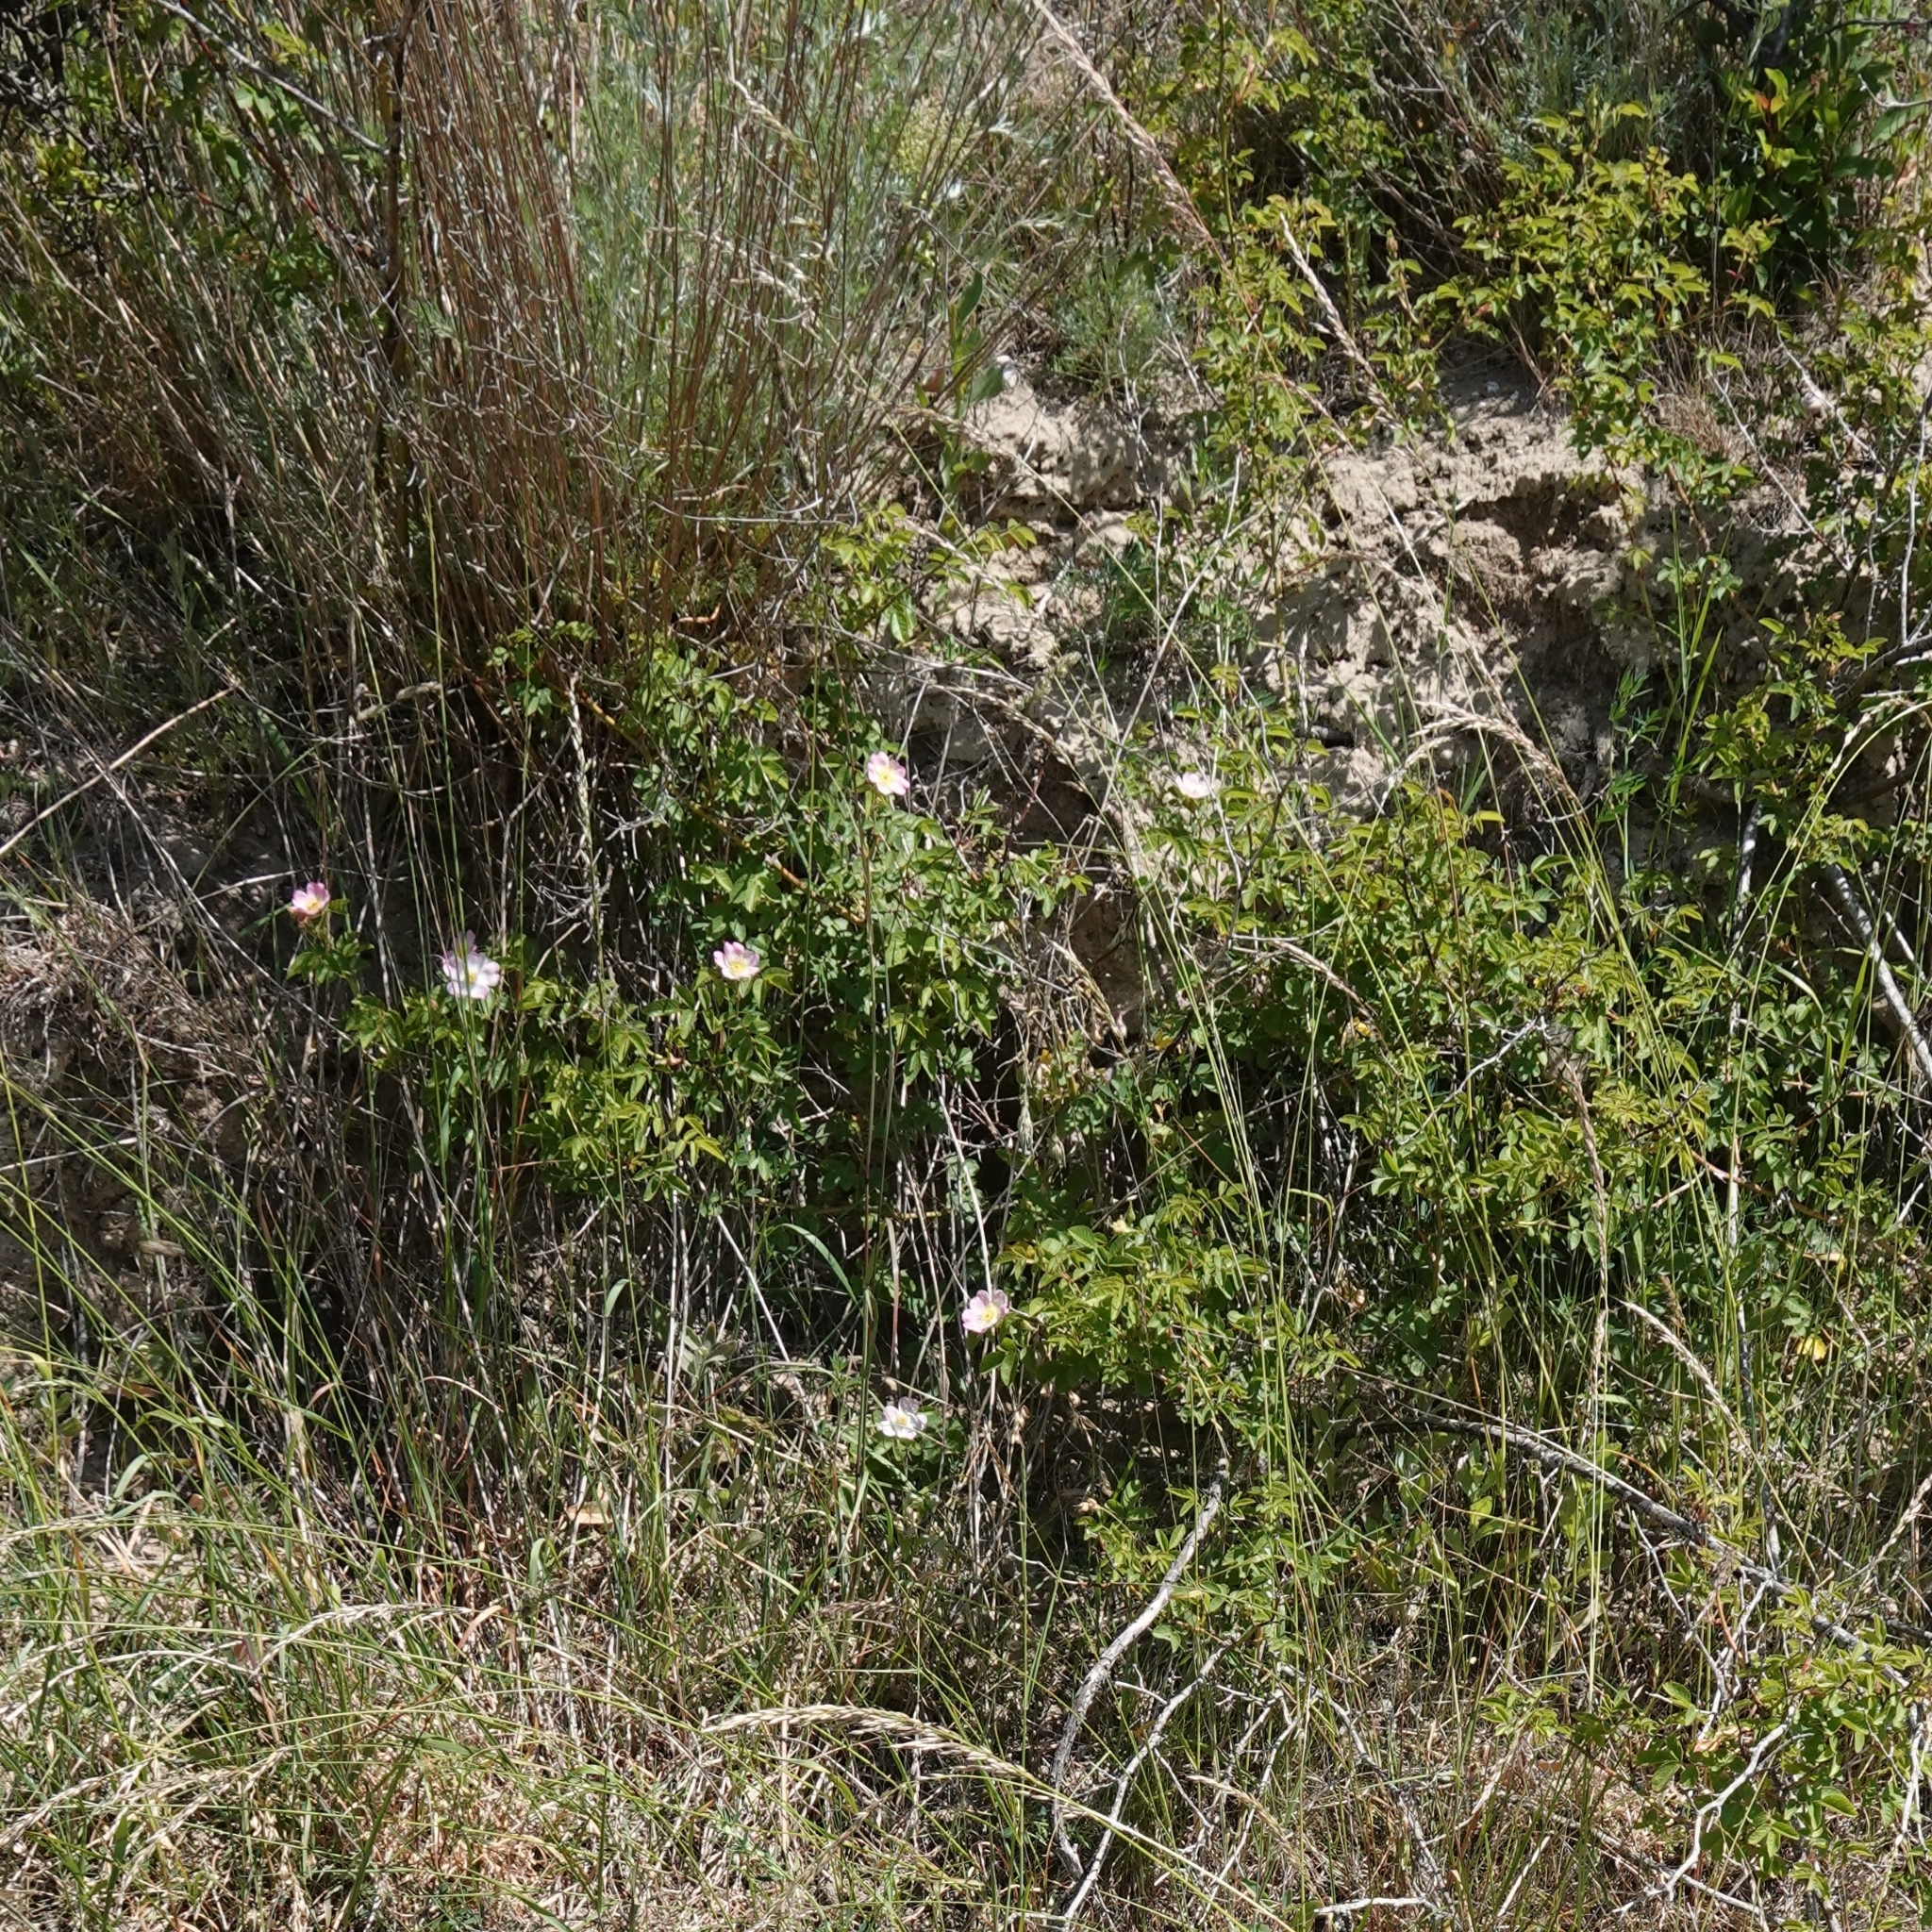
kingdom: Plantae
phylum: Tracheophyta
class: Magnoliopsida
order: Rosales
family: Rosaceae
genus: Rosa
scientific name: Rosa rubiginosa
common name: Sweet-briar
